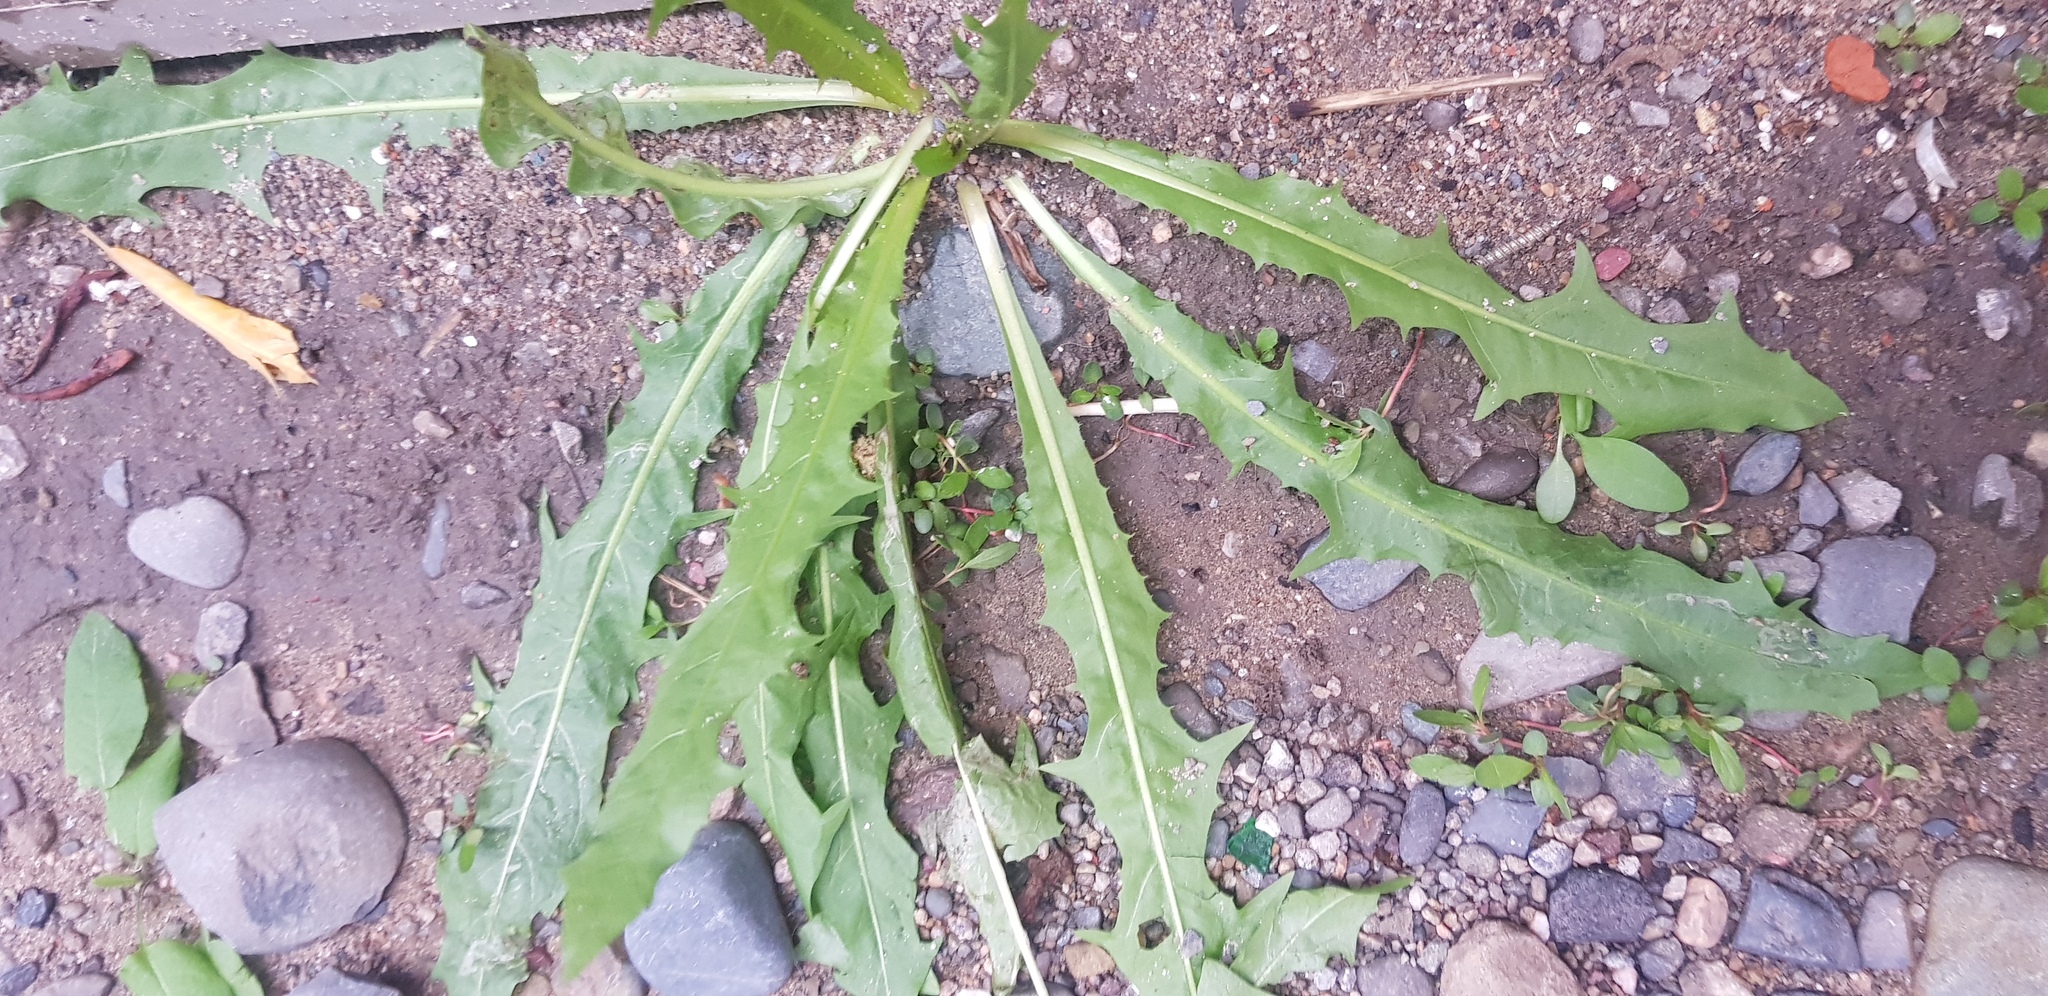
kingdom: Plantae
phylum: Tracheophyta
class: Magnoliopsida
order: Asterales
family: Asteraceae
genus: Taraxacum
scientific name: Taraxacum officinale
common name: Common dandelion
